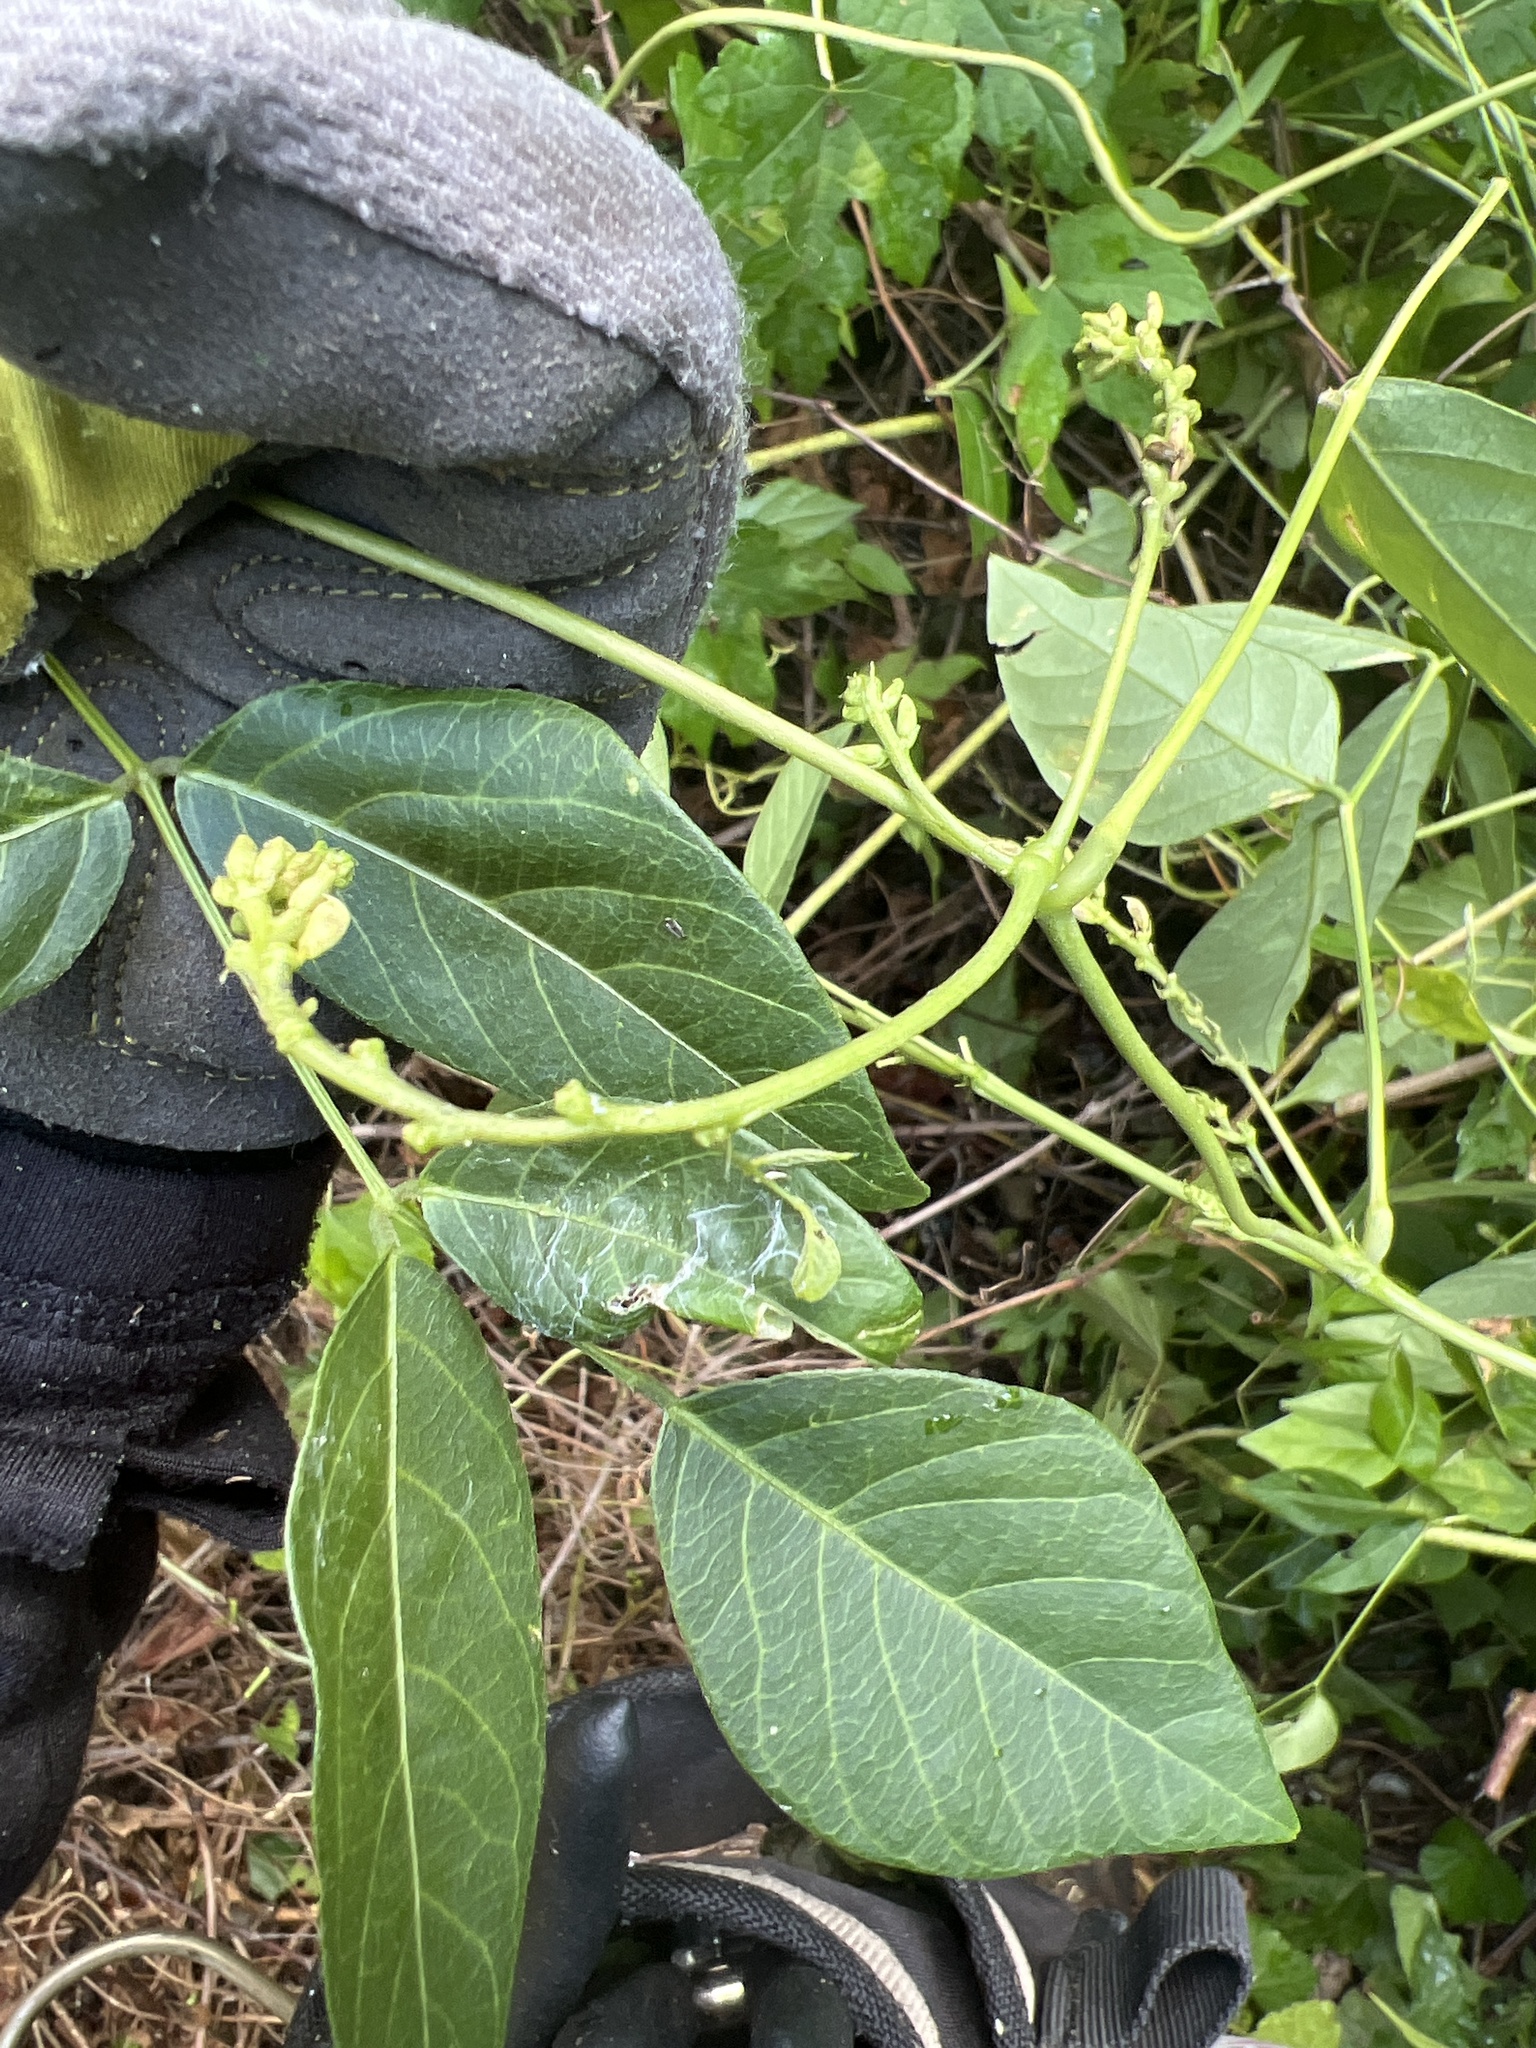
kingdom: Plantae
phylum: Tracheophyta
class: Magnoliopsida
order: Fabales
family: Fabaceae
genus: Apios
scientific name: Apios americana
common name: American potato-bean
